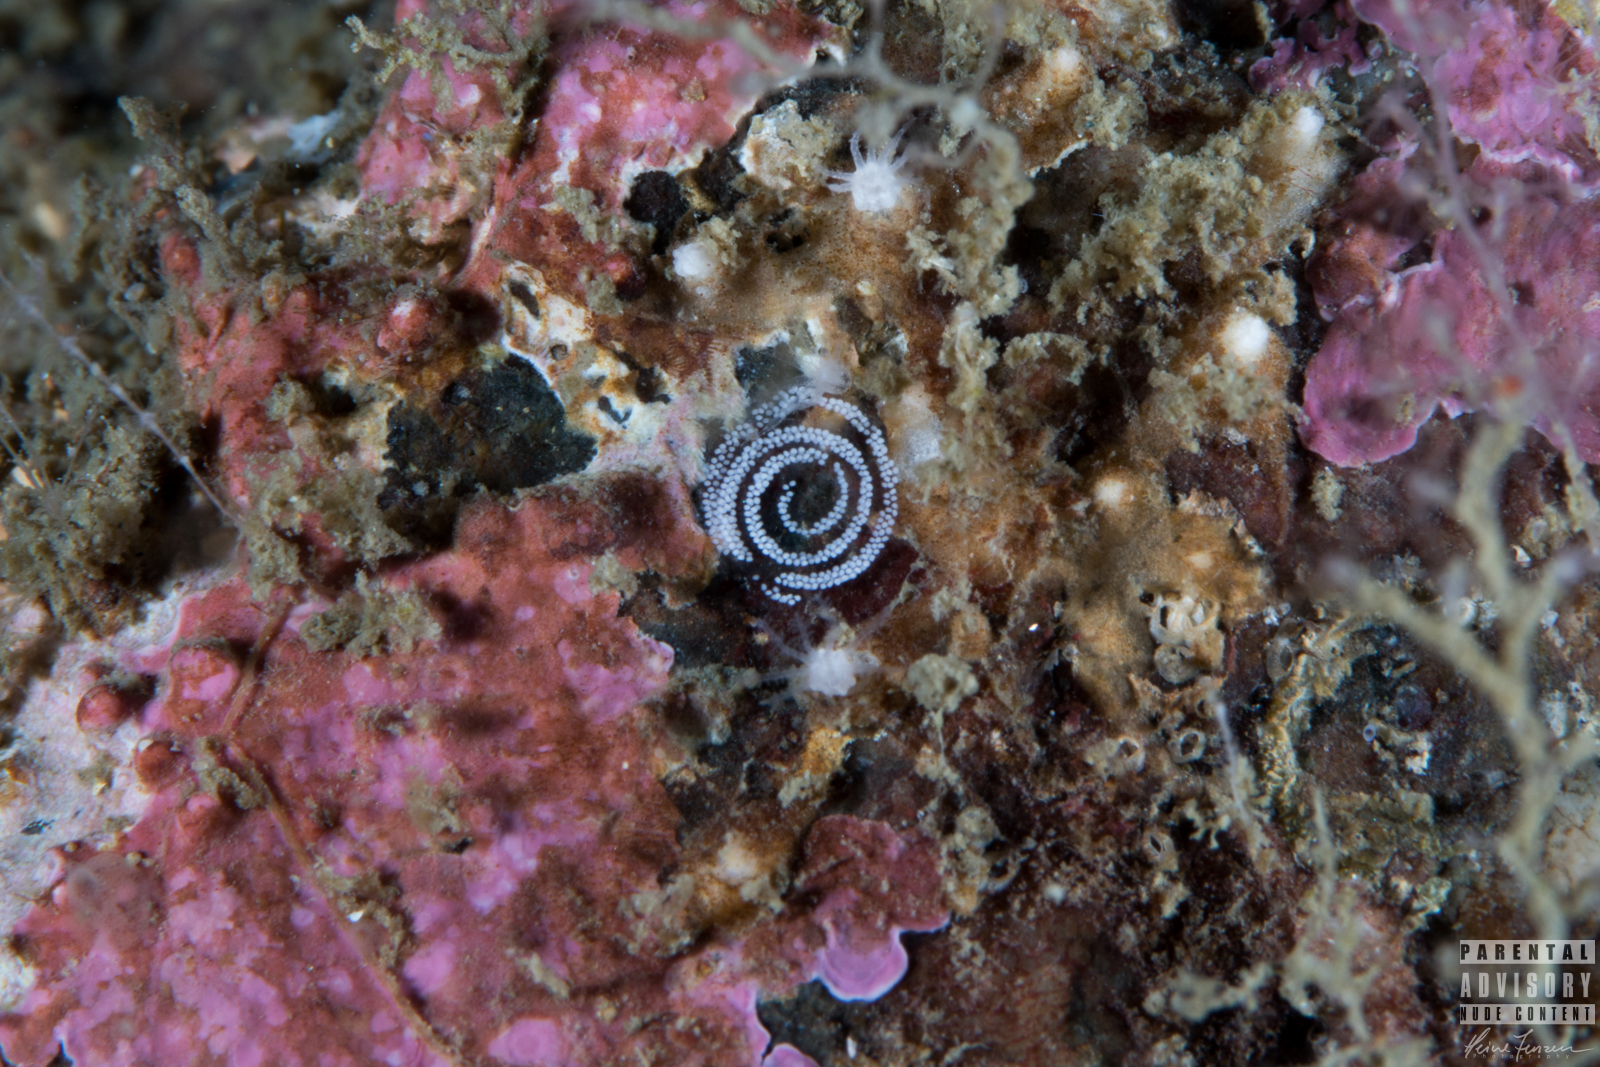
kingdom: Animalia
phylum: Mollusca
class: Gastropoda
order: Nudibranchia
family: Tritoniidae
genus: Duvaucelia
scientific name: Duvaucelia lineata
